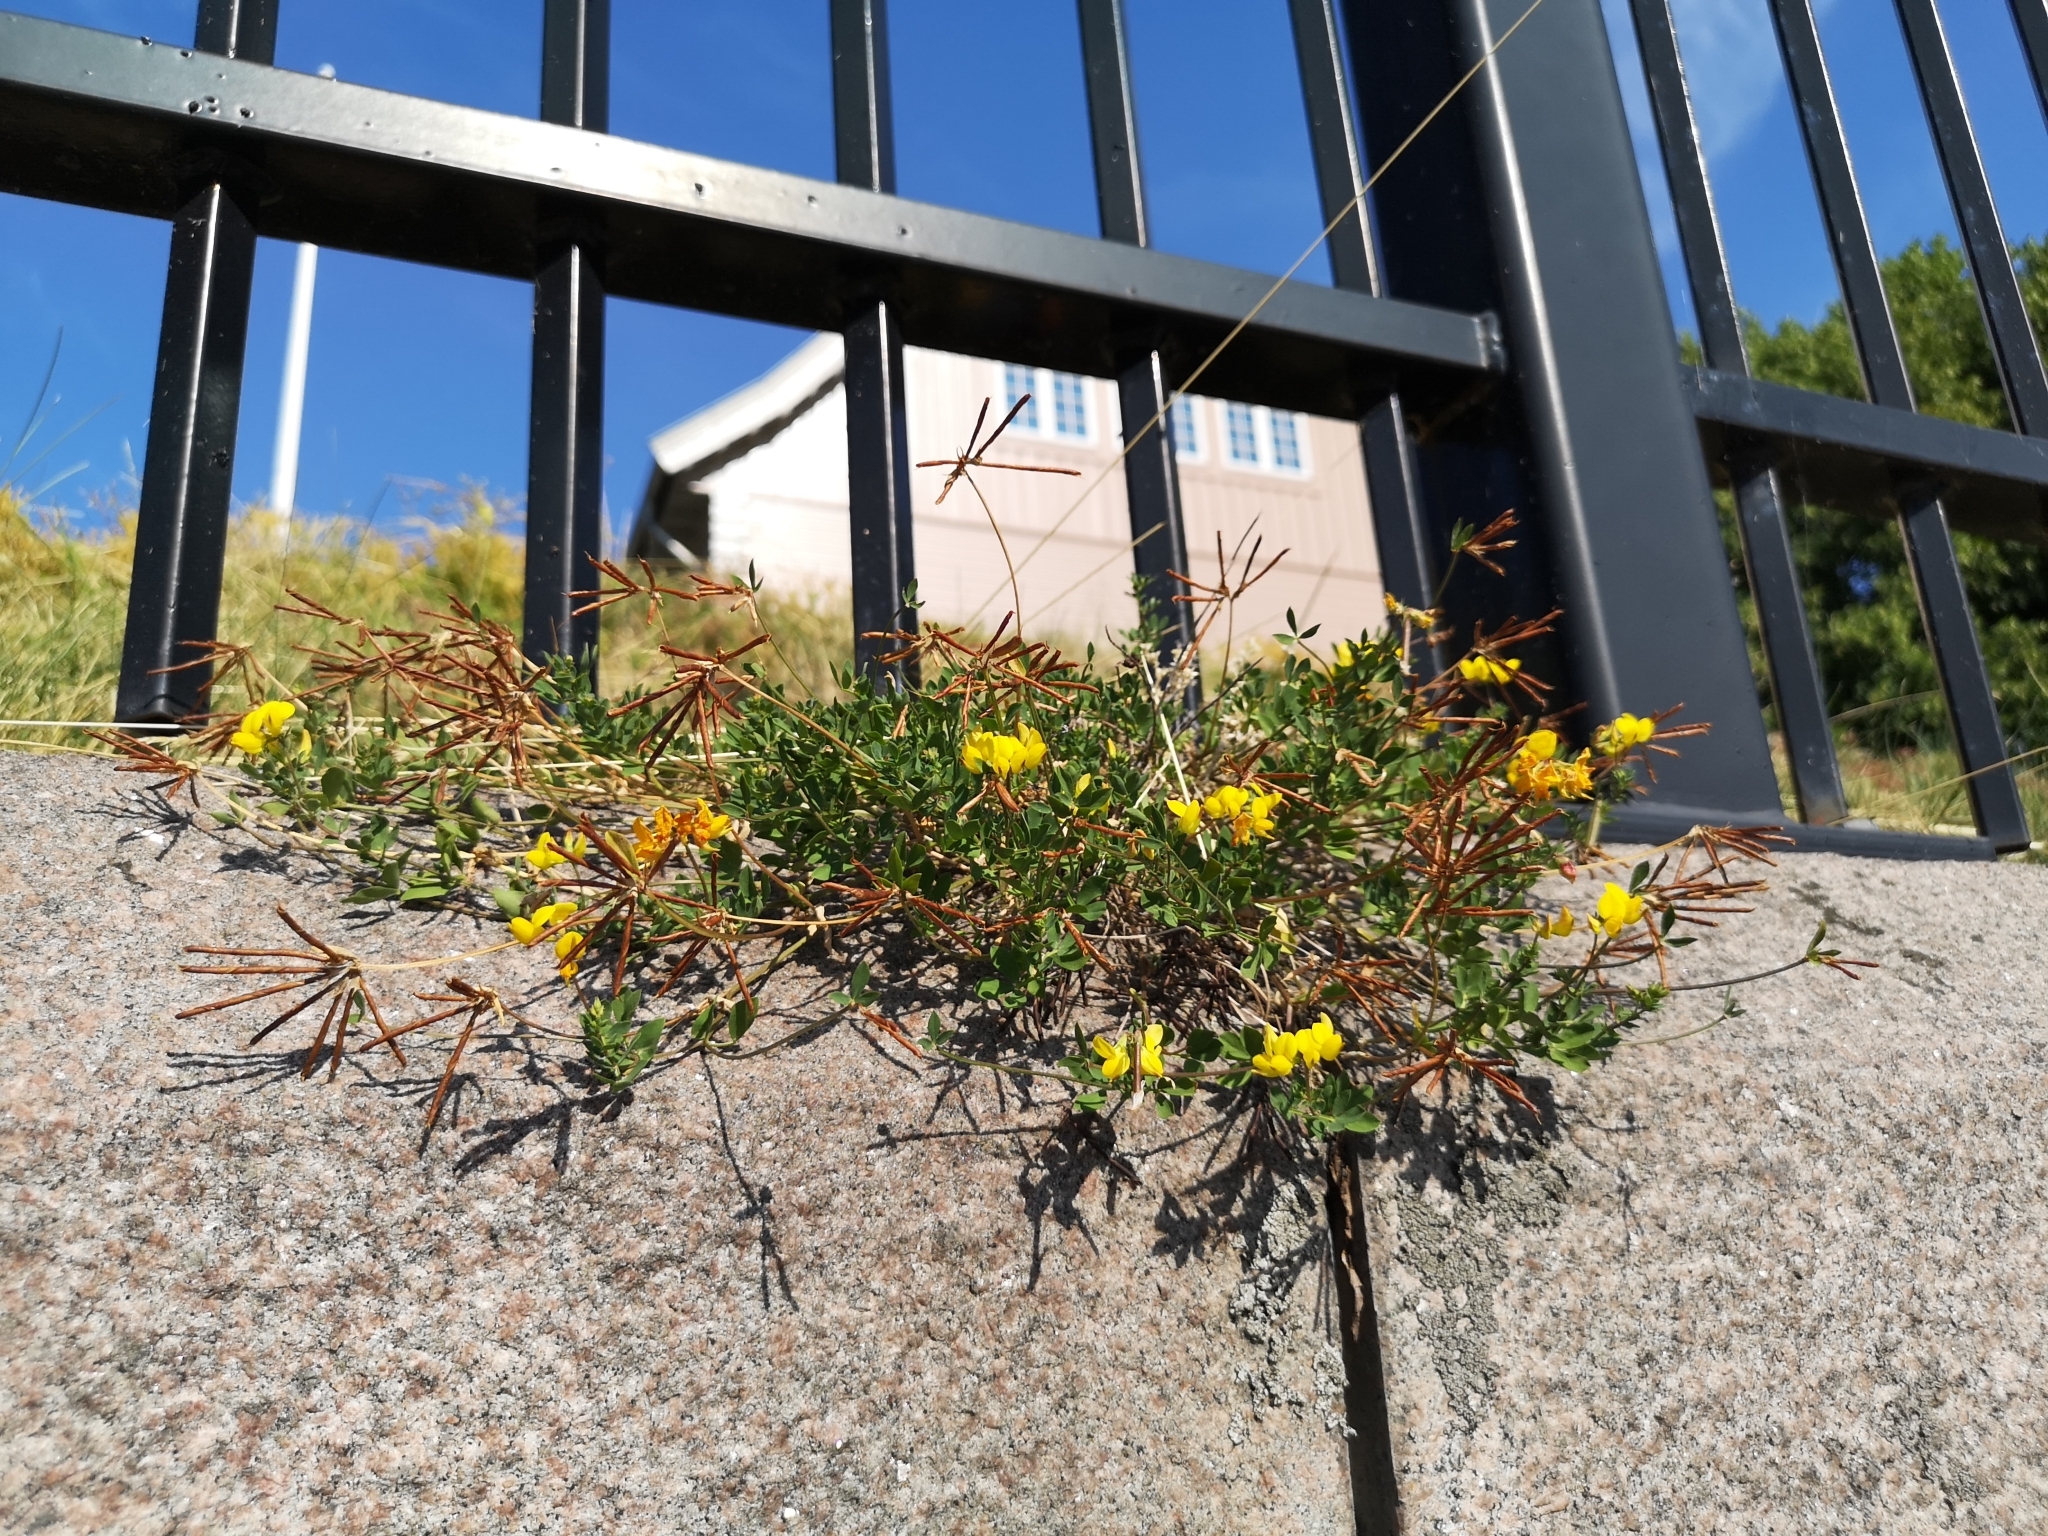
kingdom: Plantae
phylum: Tracheophyta
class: Magnoliopsida
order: Fabales
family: Fabaceae
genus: Lotus
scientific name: Lotus corniculatus
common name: Common bird's-foot-trefoil
